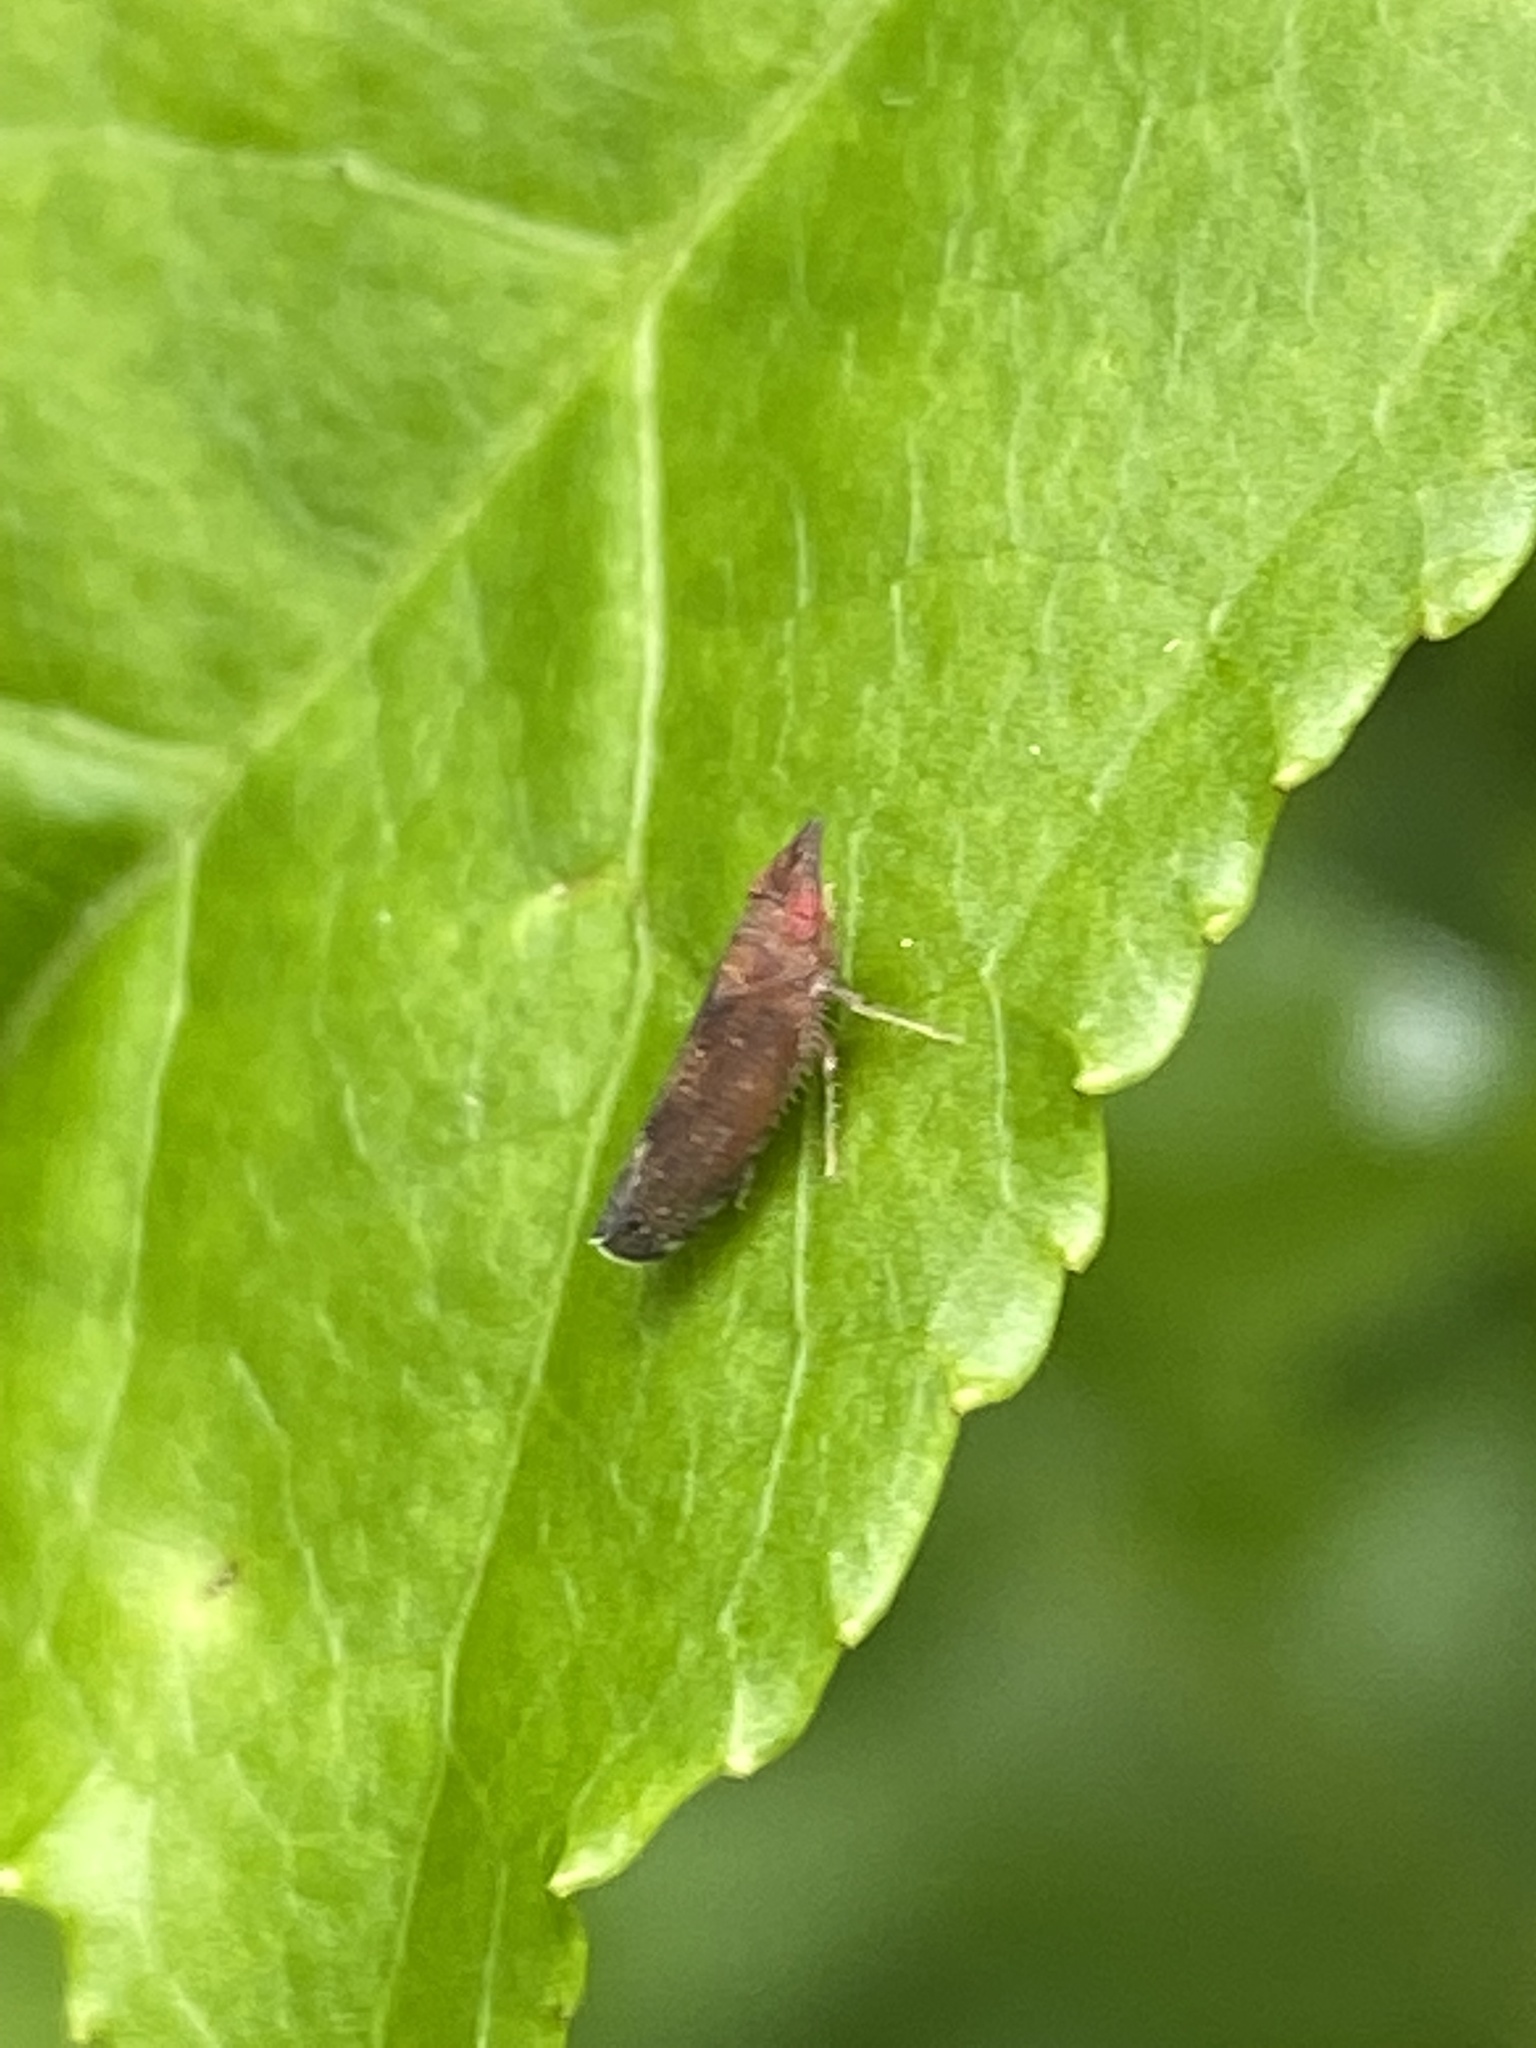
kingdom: Animalia
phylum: Arthropoda
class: Insecta
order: Hemiptera
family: Cicadellidae
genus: Scaphytopius
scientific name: Scaphytopius rubellus
